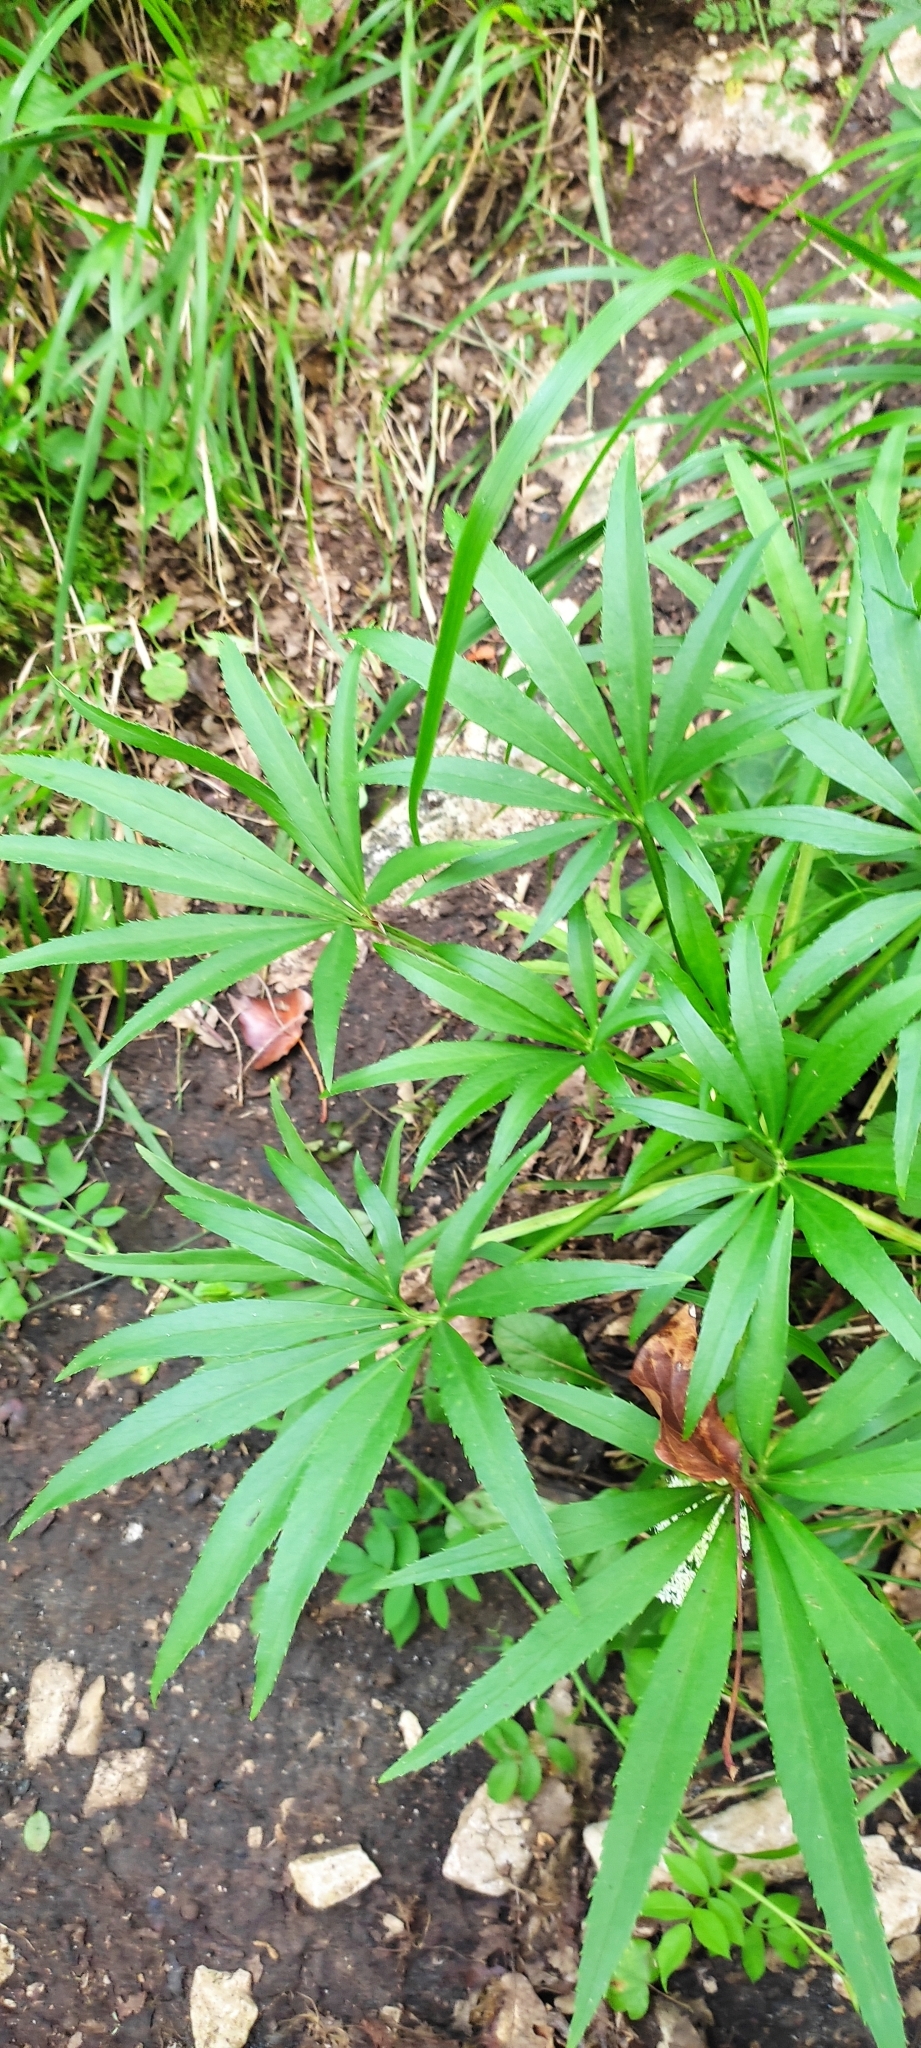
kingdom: Plantae
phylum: Tracheophyta
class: Magnoliopsida
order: Ranunculales
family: Ranunculaceae
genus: Helleborus
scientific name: Helleborus foetidus
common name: Stinking hellebore
